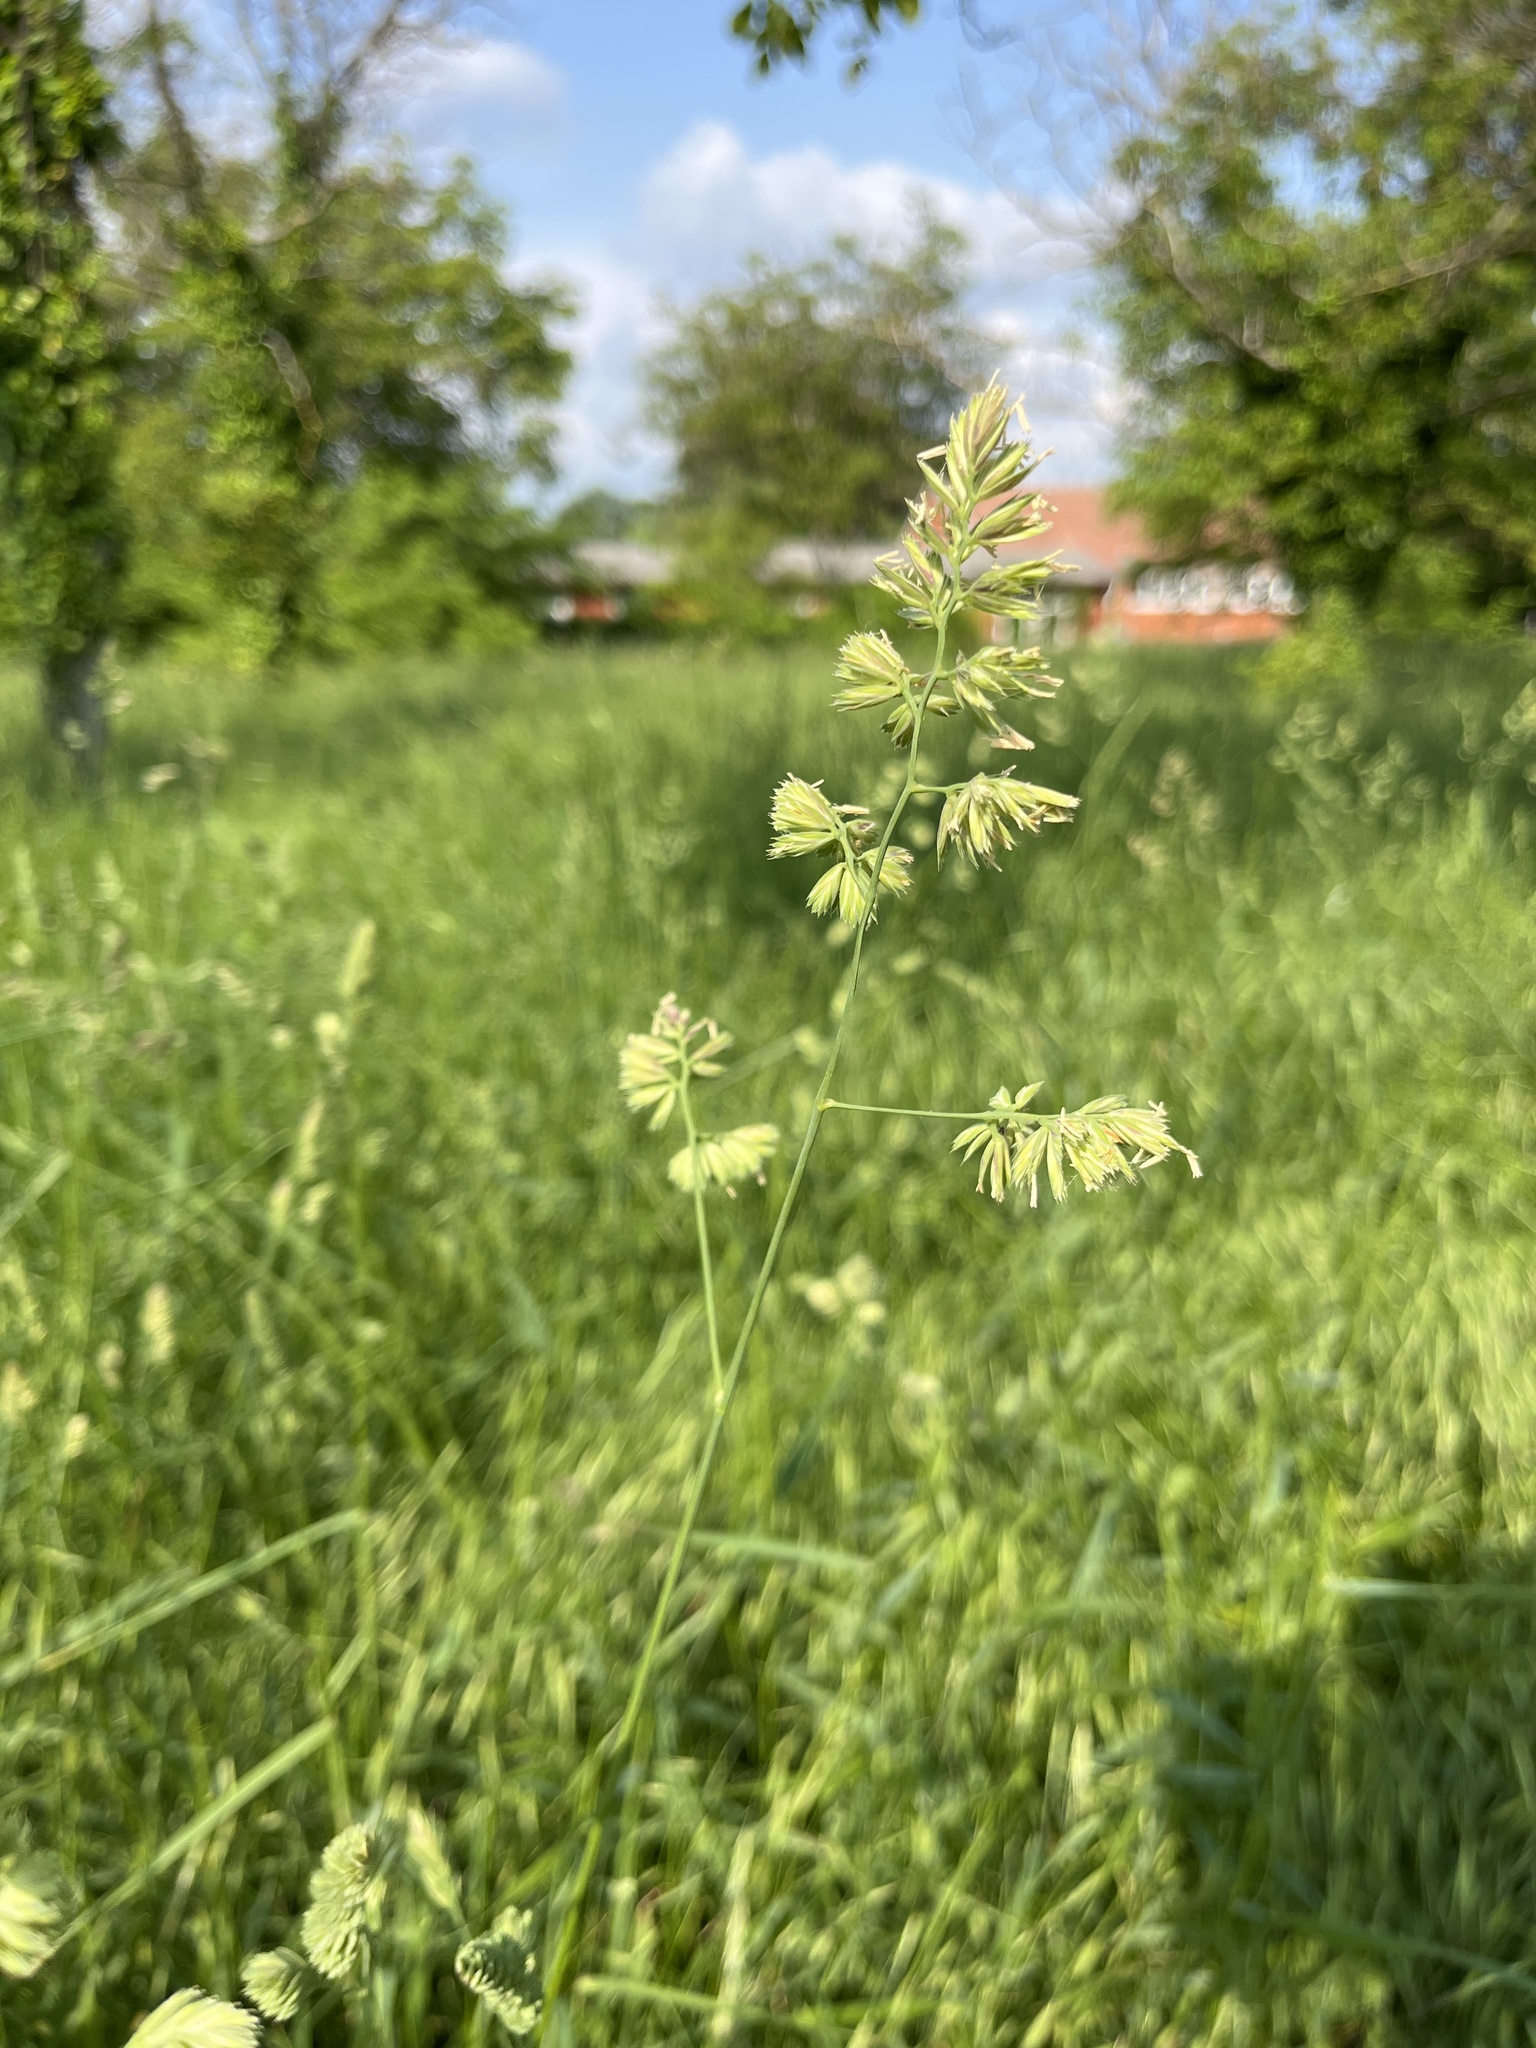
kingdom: Plantae
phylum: Tracheophyta
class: Liliopsida
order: Poales
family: Poaceae
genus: Dactylis
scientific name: Dactylis glomerata
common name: Orchardgrass
